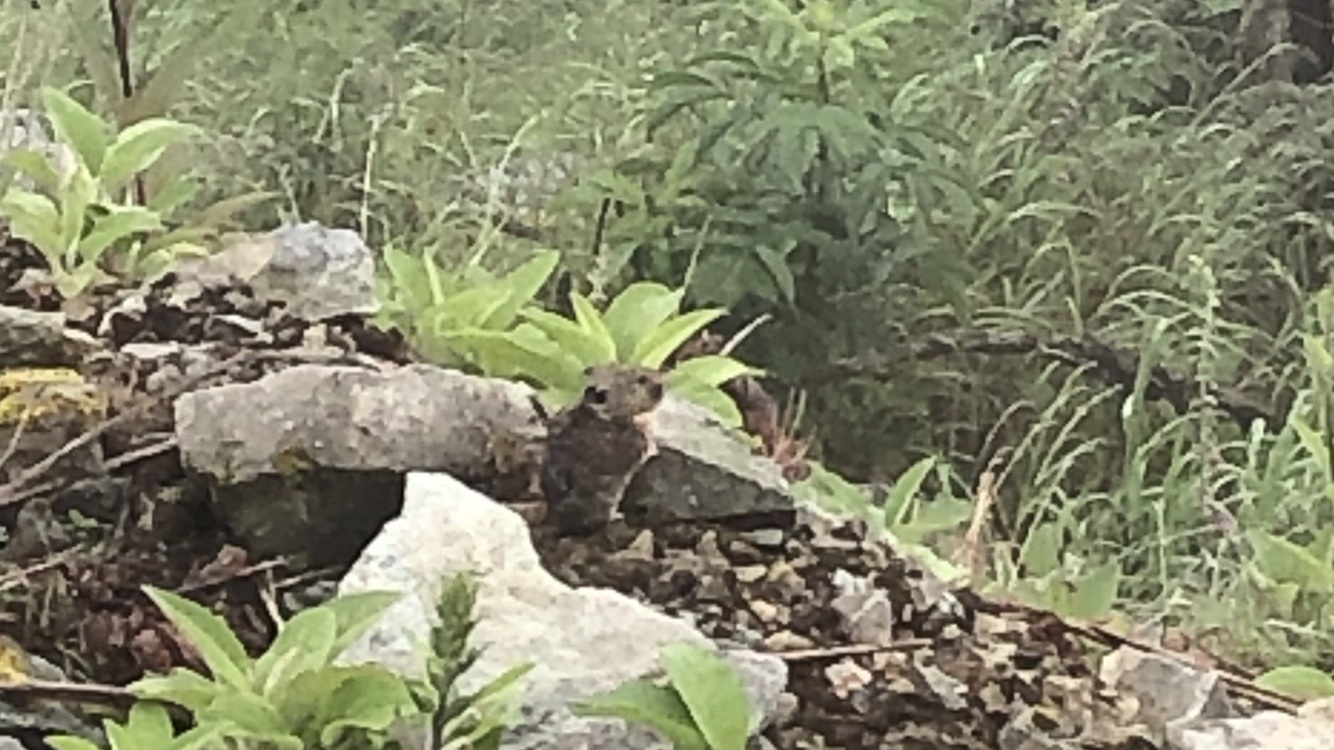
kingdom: Animalia
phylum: Chordata
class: Mammalia
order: Lagomorpha
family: Ochotonidae
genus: Ochotona
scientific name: Ochotona princeps
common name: American pika
